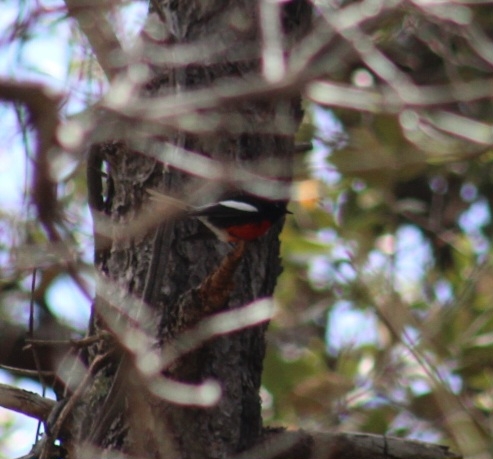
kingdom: Animalia
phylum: Chordata
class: Aves
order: Passeriformes
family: Parulidae
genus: Myioborus
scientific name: Myioborus pictus
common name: Painted whitestart
